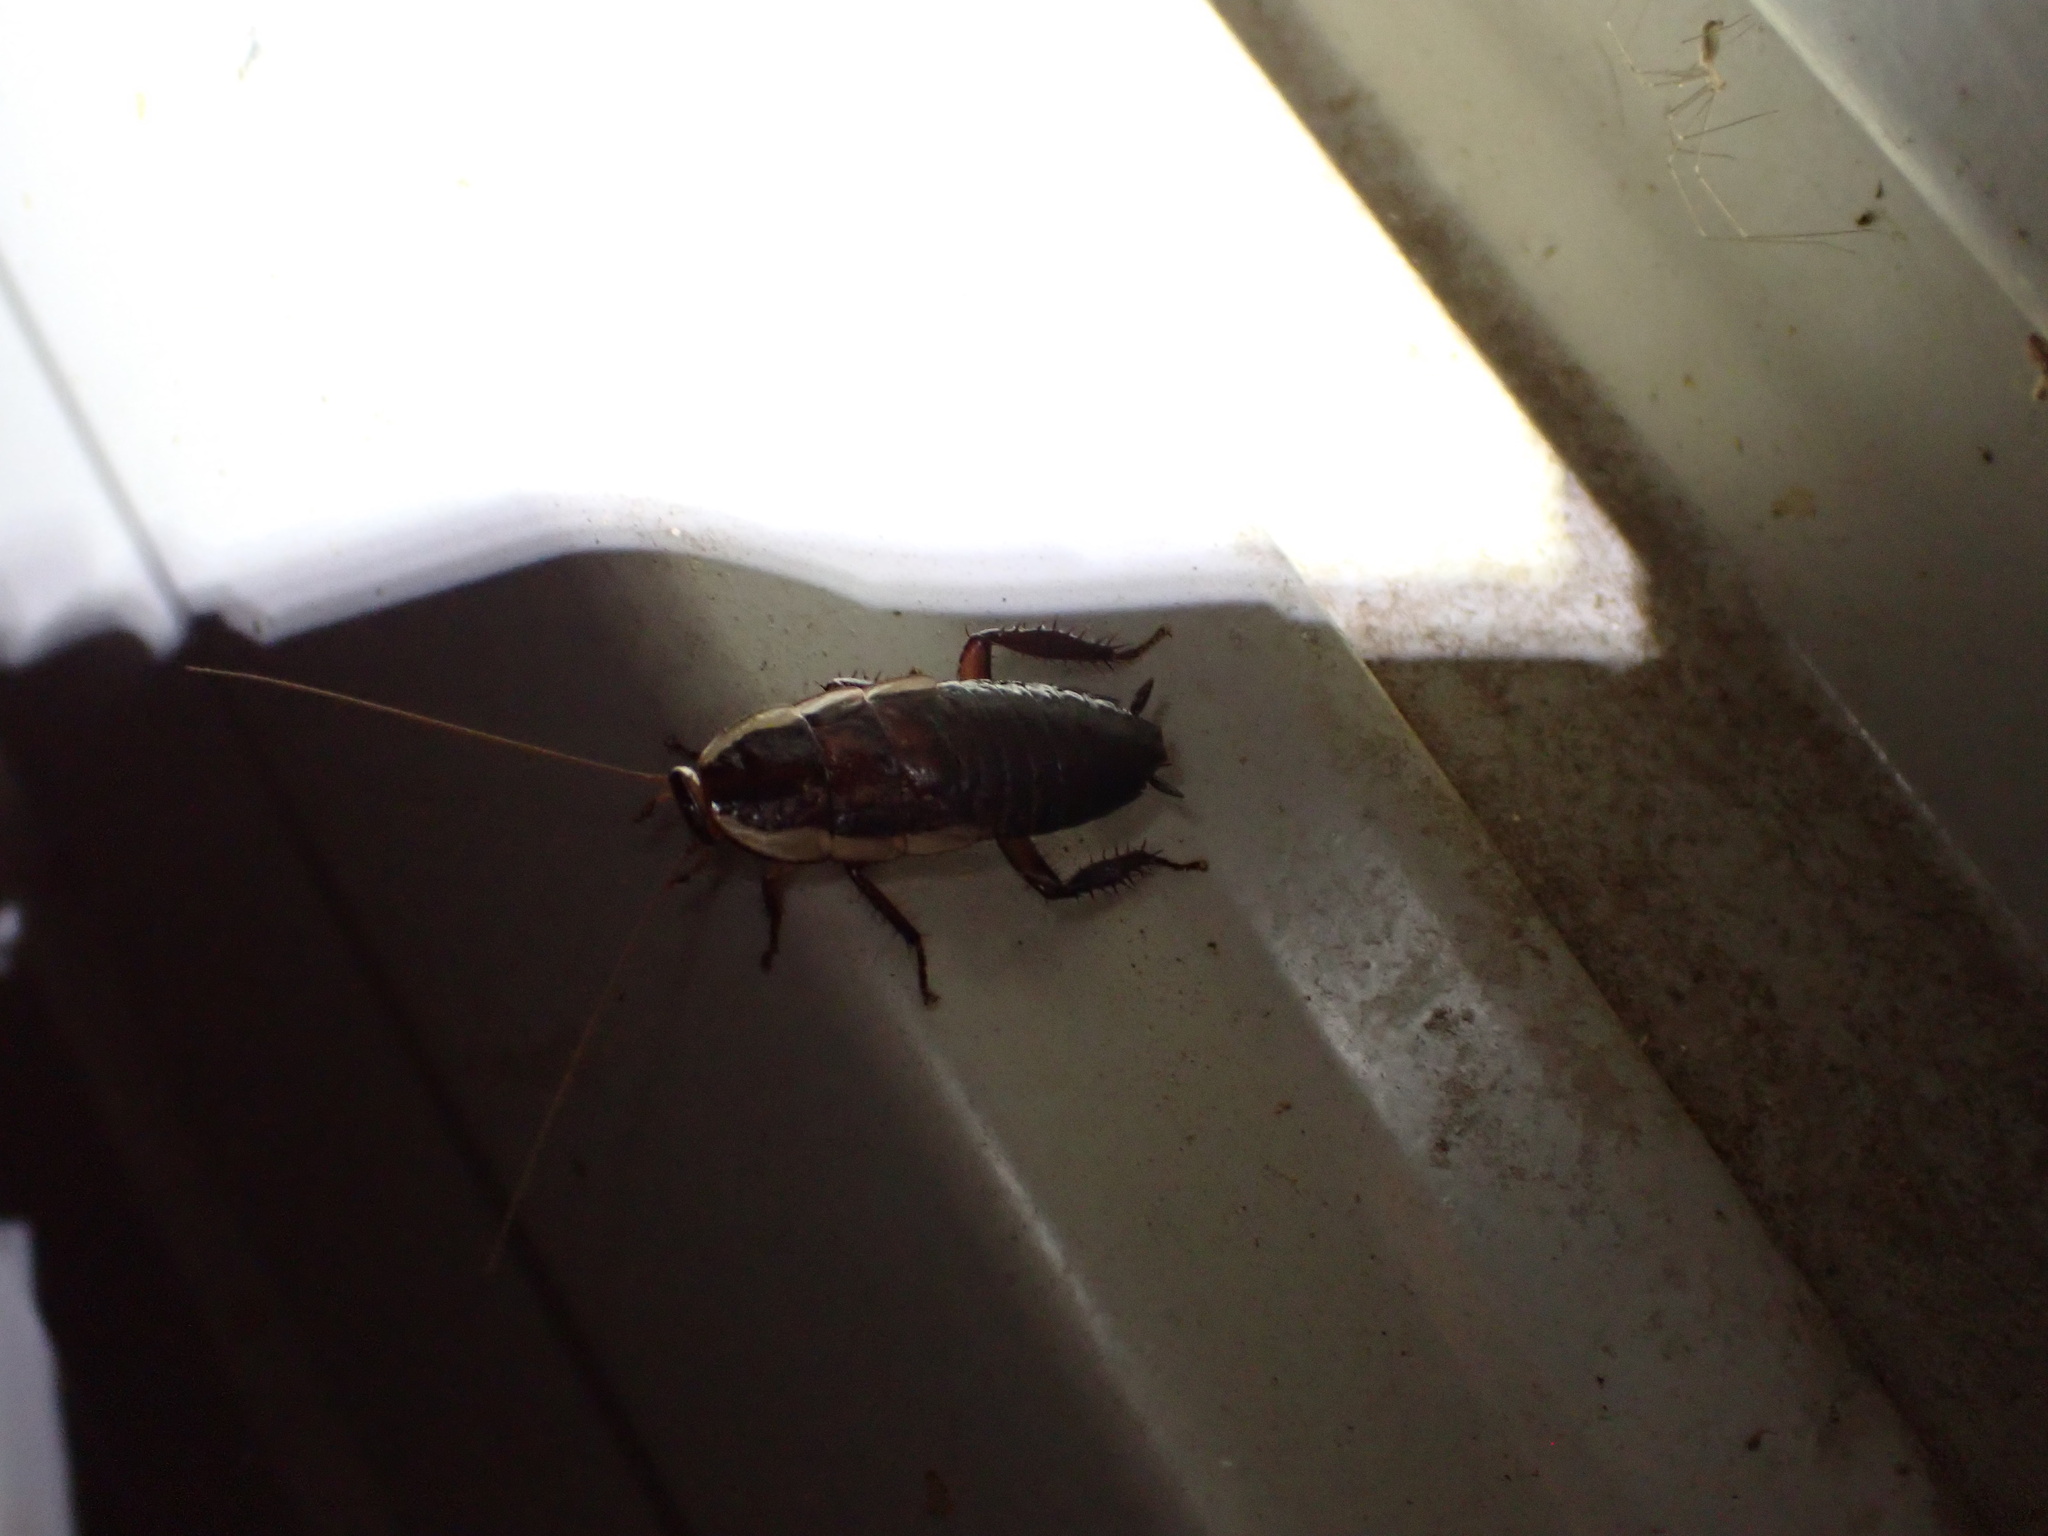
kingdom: Animalia
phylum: Arthropoda
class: Insecta
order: Blattodea
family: Blattidae
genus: Drymaplaneta
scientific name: Drymaplaneta semivitta
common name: Gisborne cockroach
